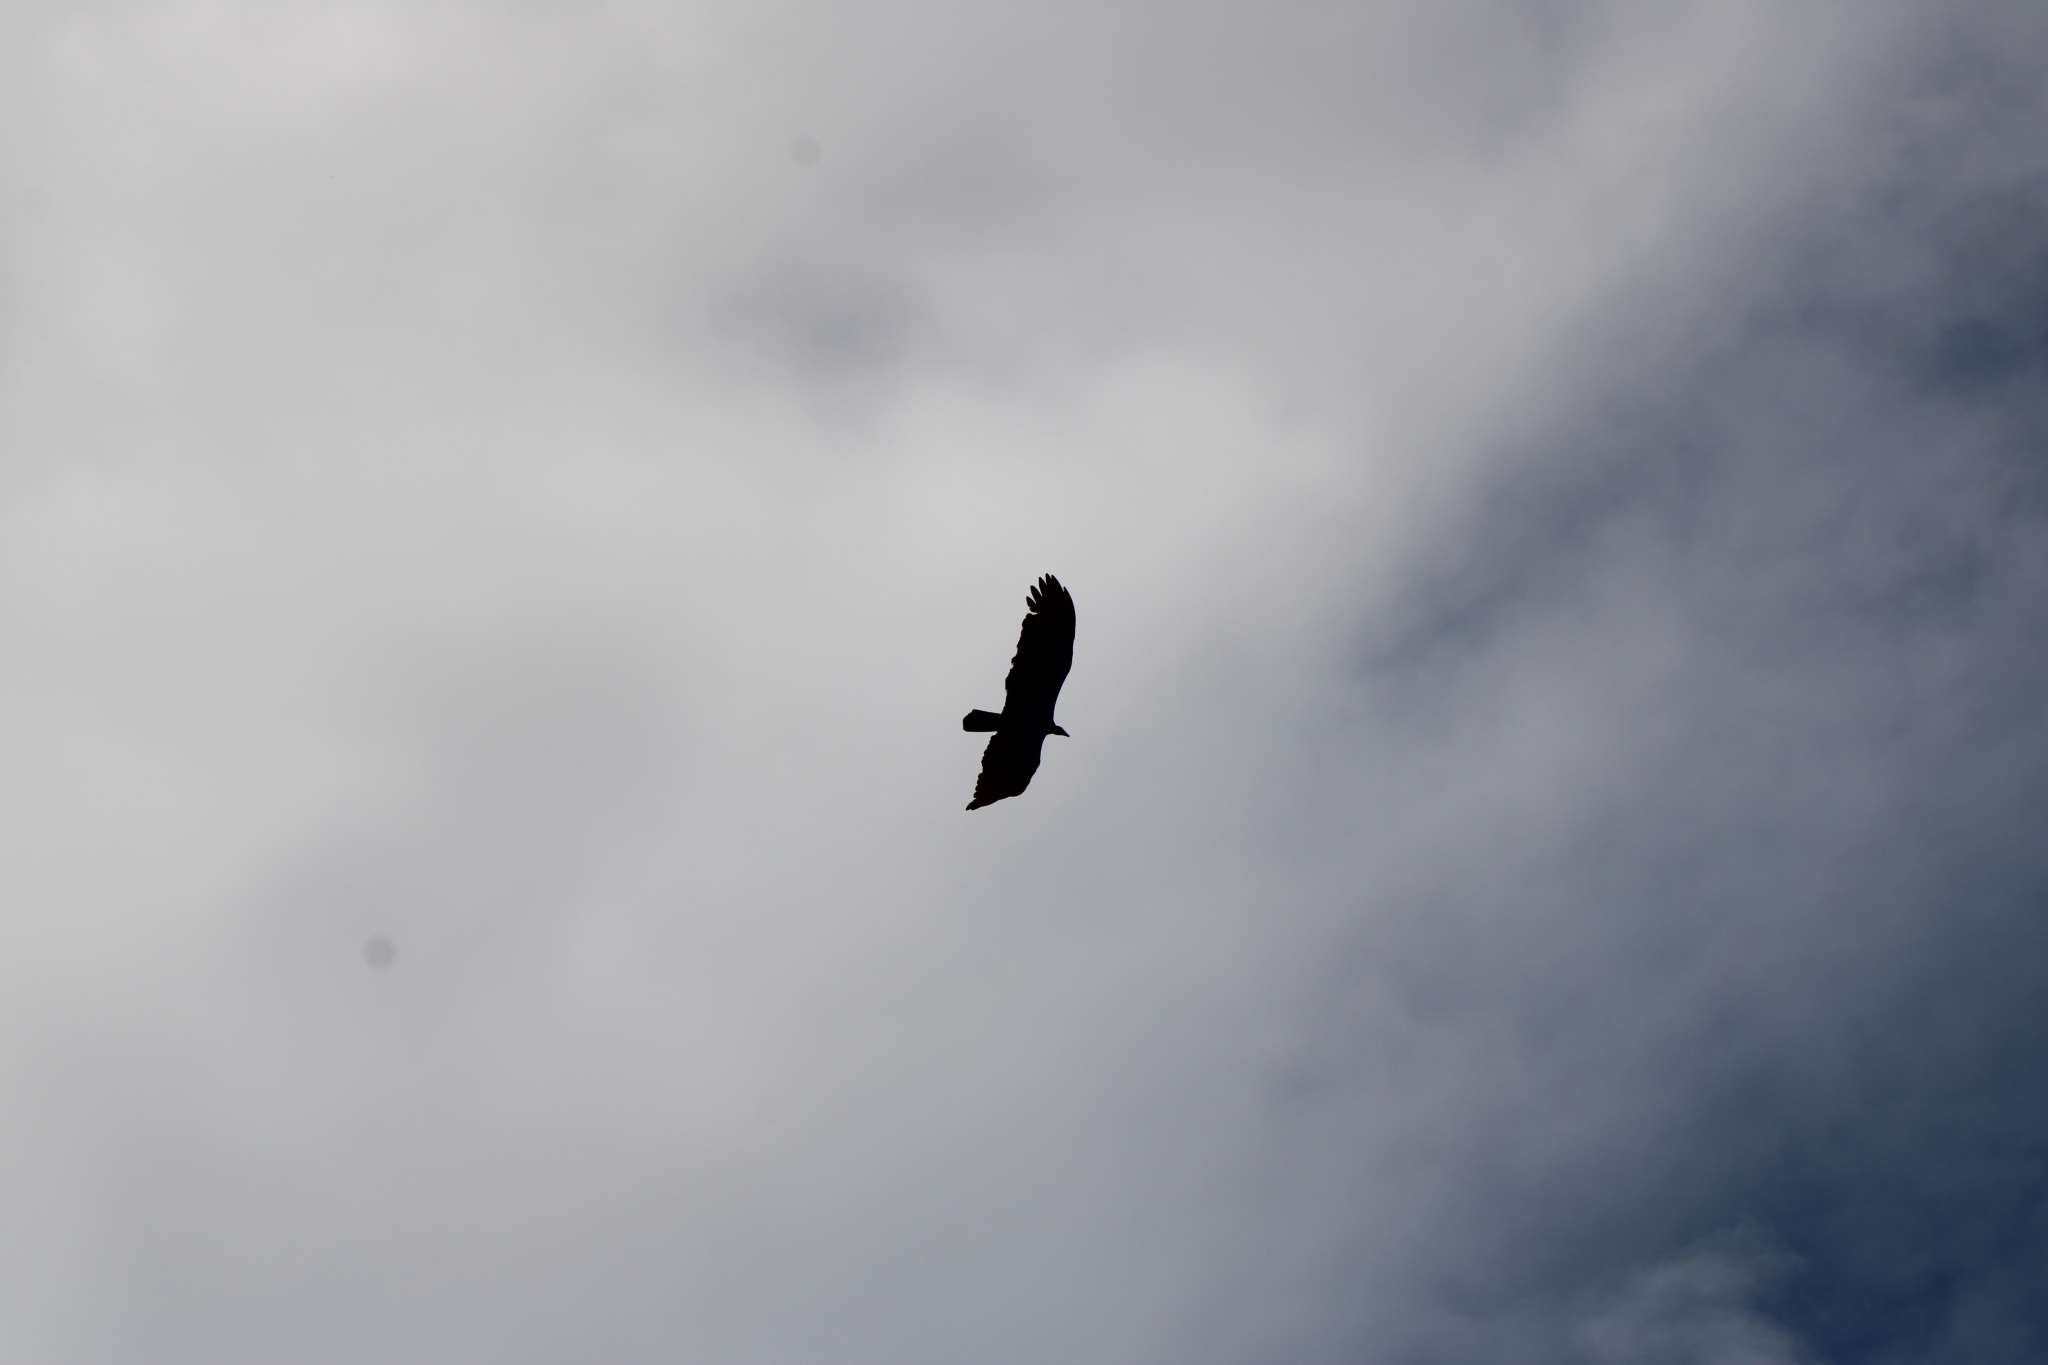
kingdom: Animalia
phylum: Chordata
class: Aves
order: Accipitriformes
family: Cathartidae
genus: Cathartes
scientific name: Cathartes aura
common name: Turkey vulture
